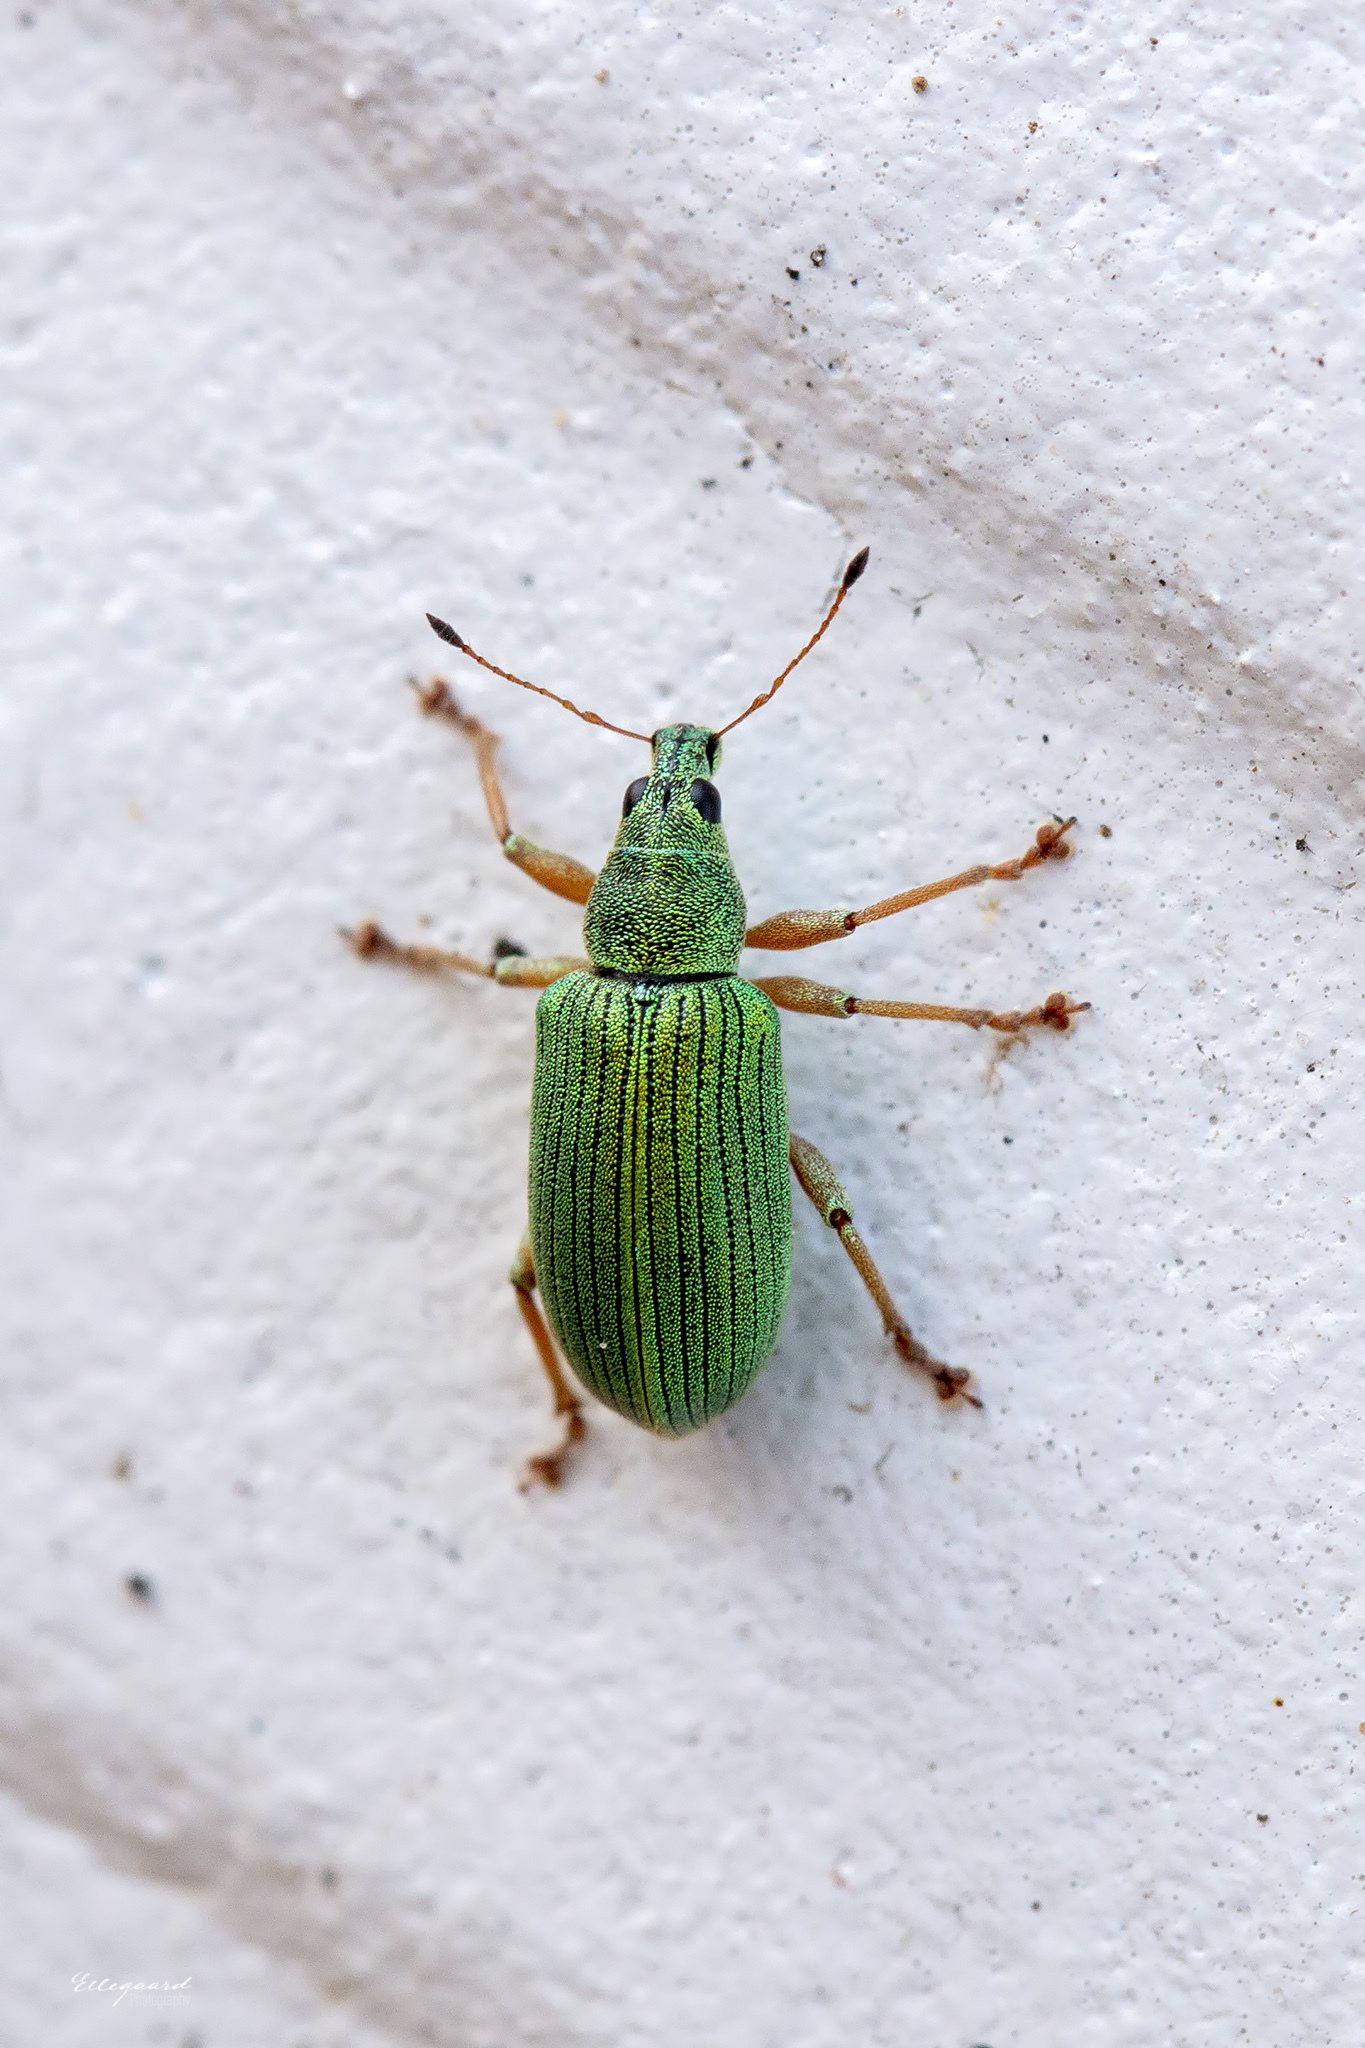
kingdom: Animalia
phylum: Arthropoda
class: Insecta
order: Coleoptera
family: Curculionidae
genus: Polydrusus
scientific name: Polydrusus formosus
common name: Weevil
